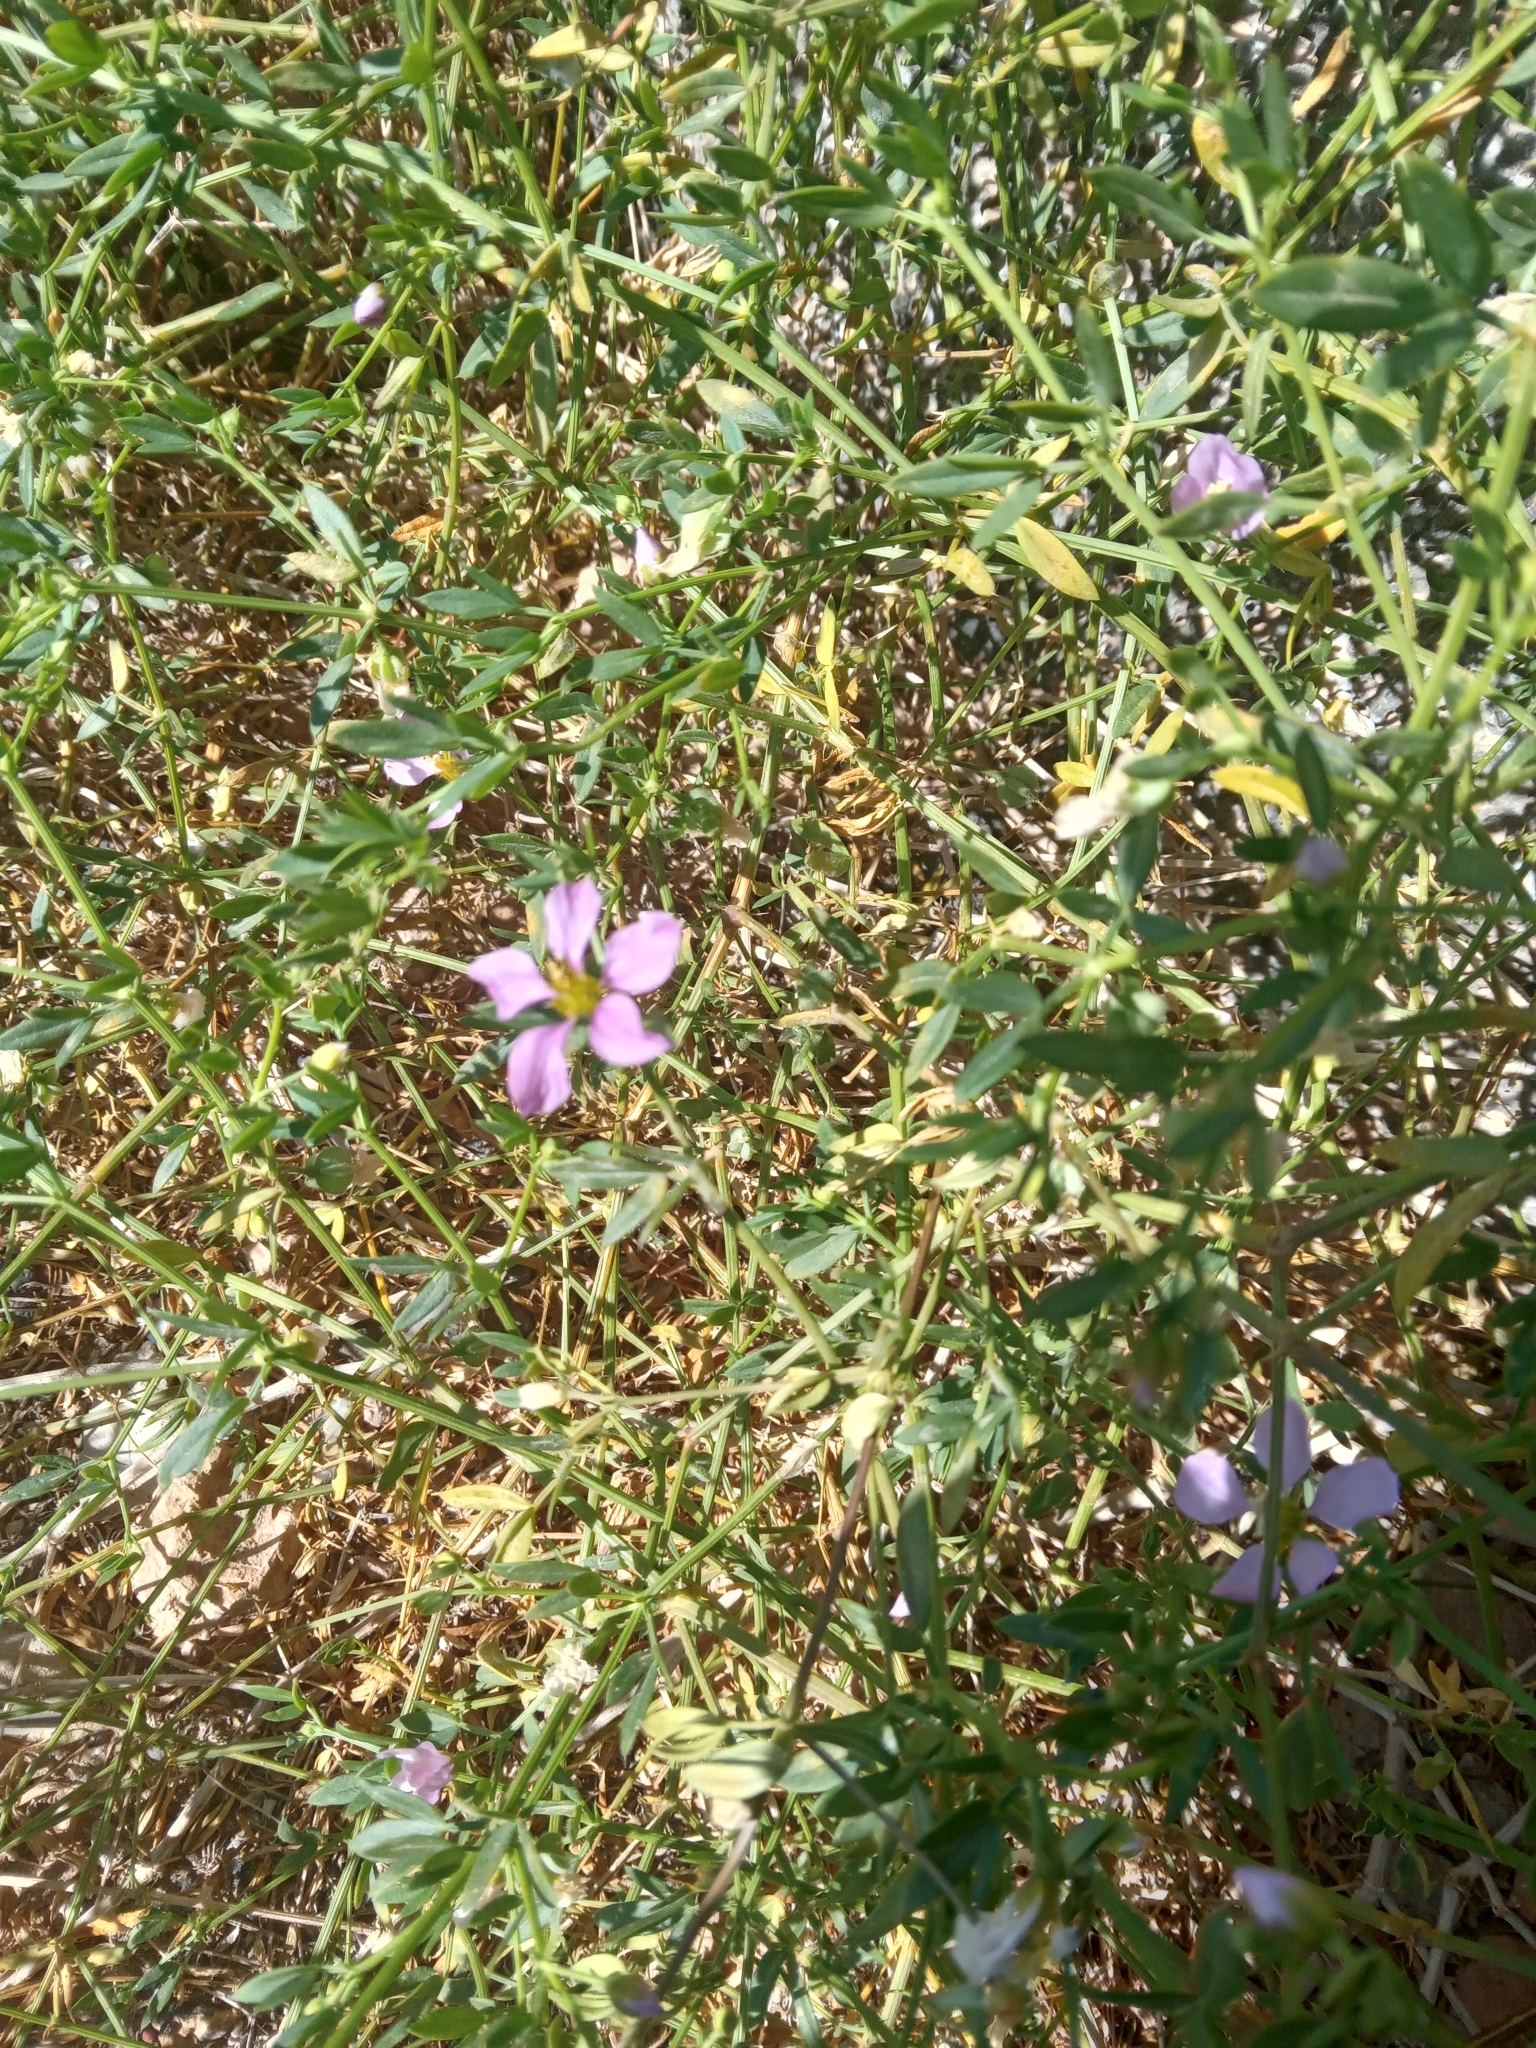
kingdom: Plantae
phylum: Tracheophyta
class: Magnoliopsida
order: Zygophyllales
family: Zygophyllaceae
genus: Fagonia
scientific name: Fagonia cretica
